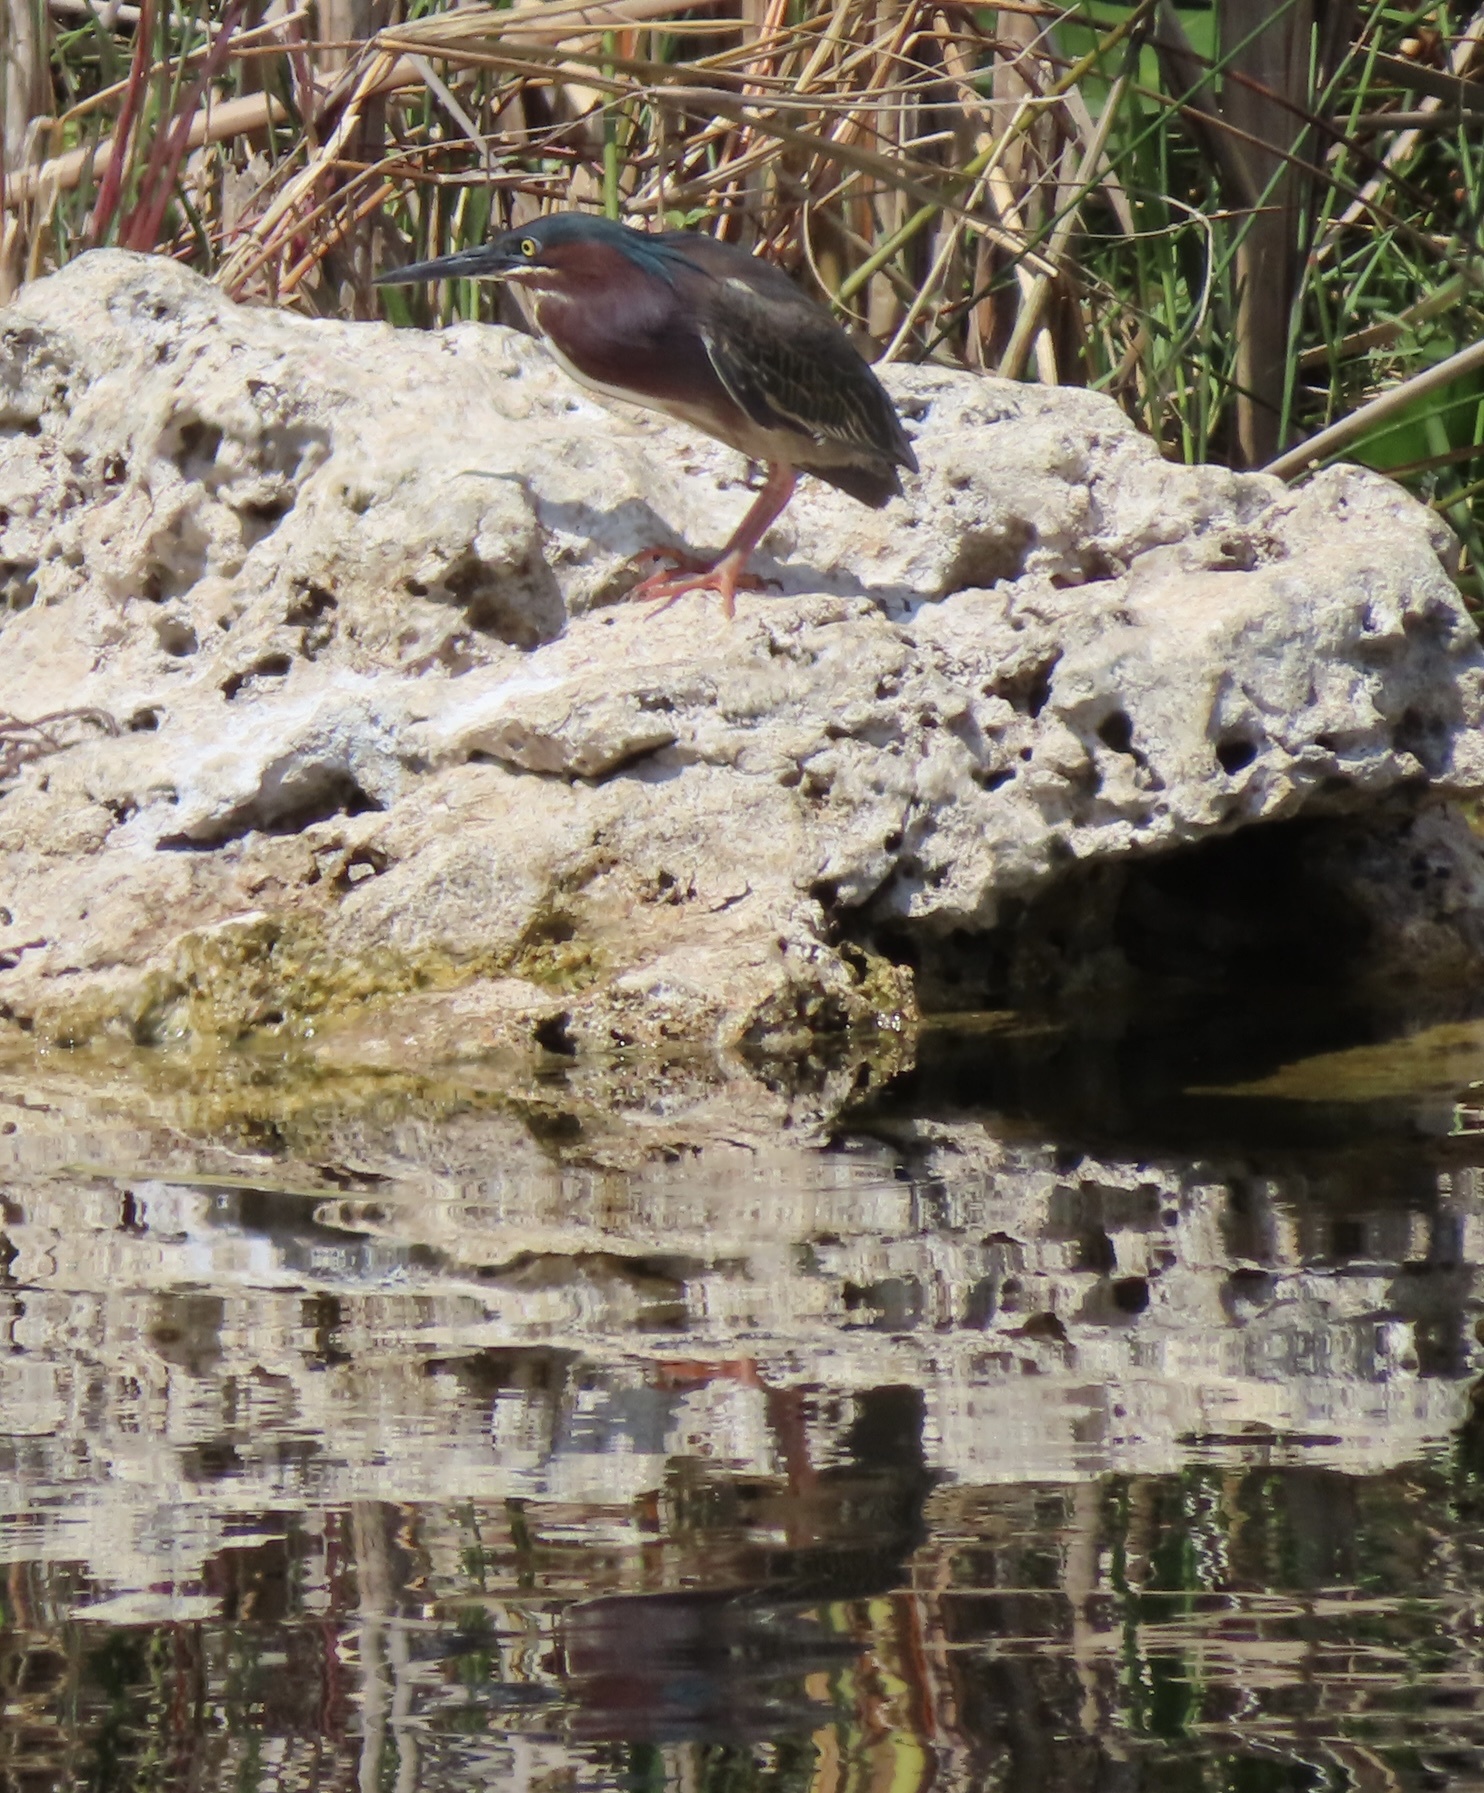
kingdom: Animalia
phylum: Chordata
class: Aves
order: Pelecaniformes
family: Ardeidae
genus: Butorides
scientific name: Butorides virescens
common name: Green heron
